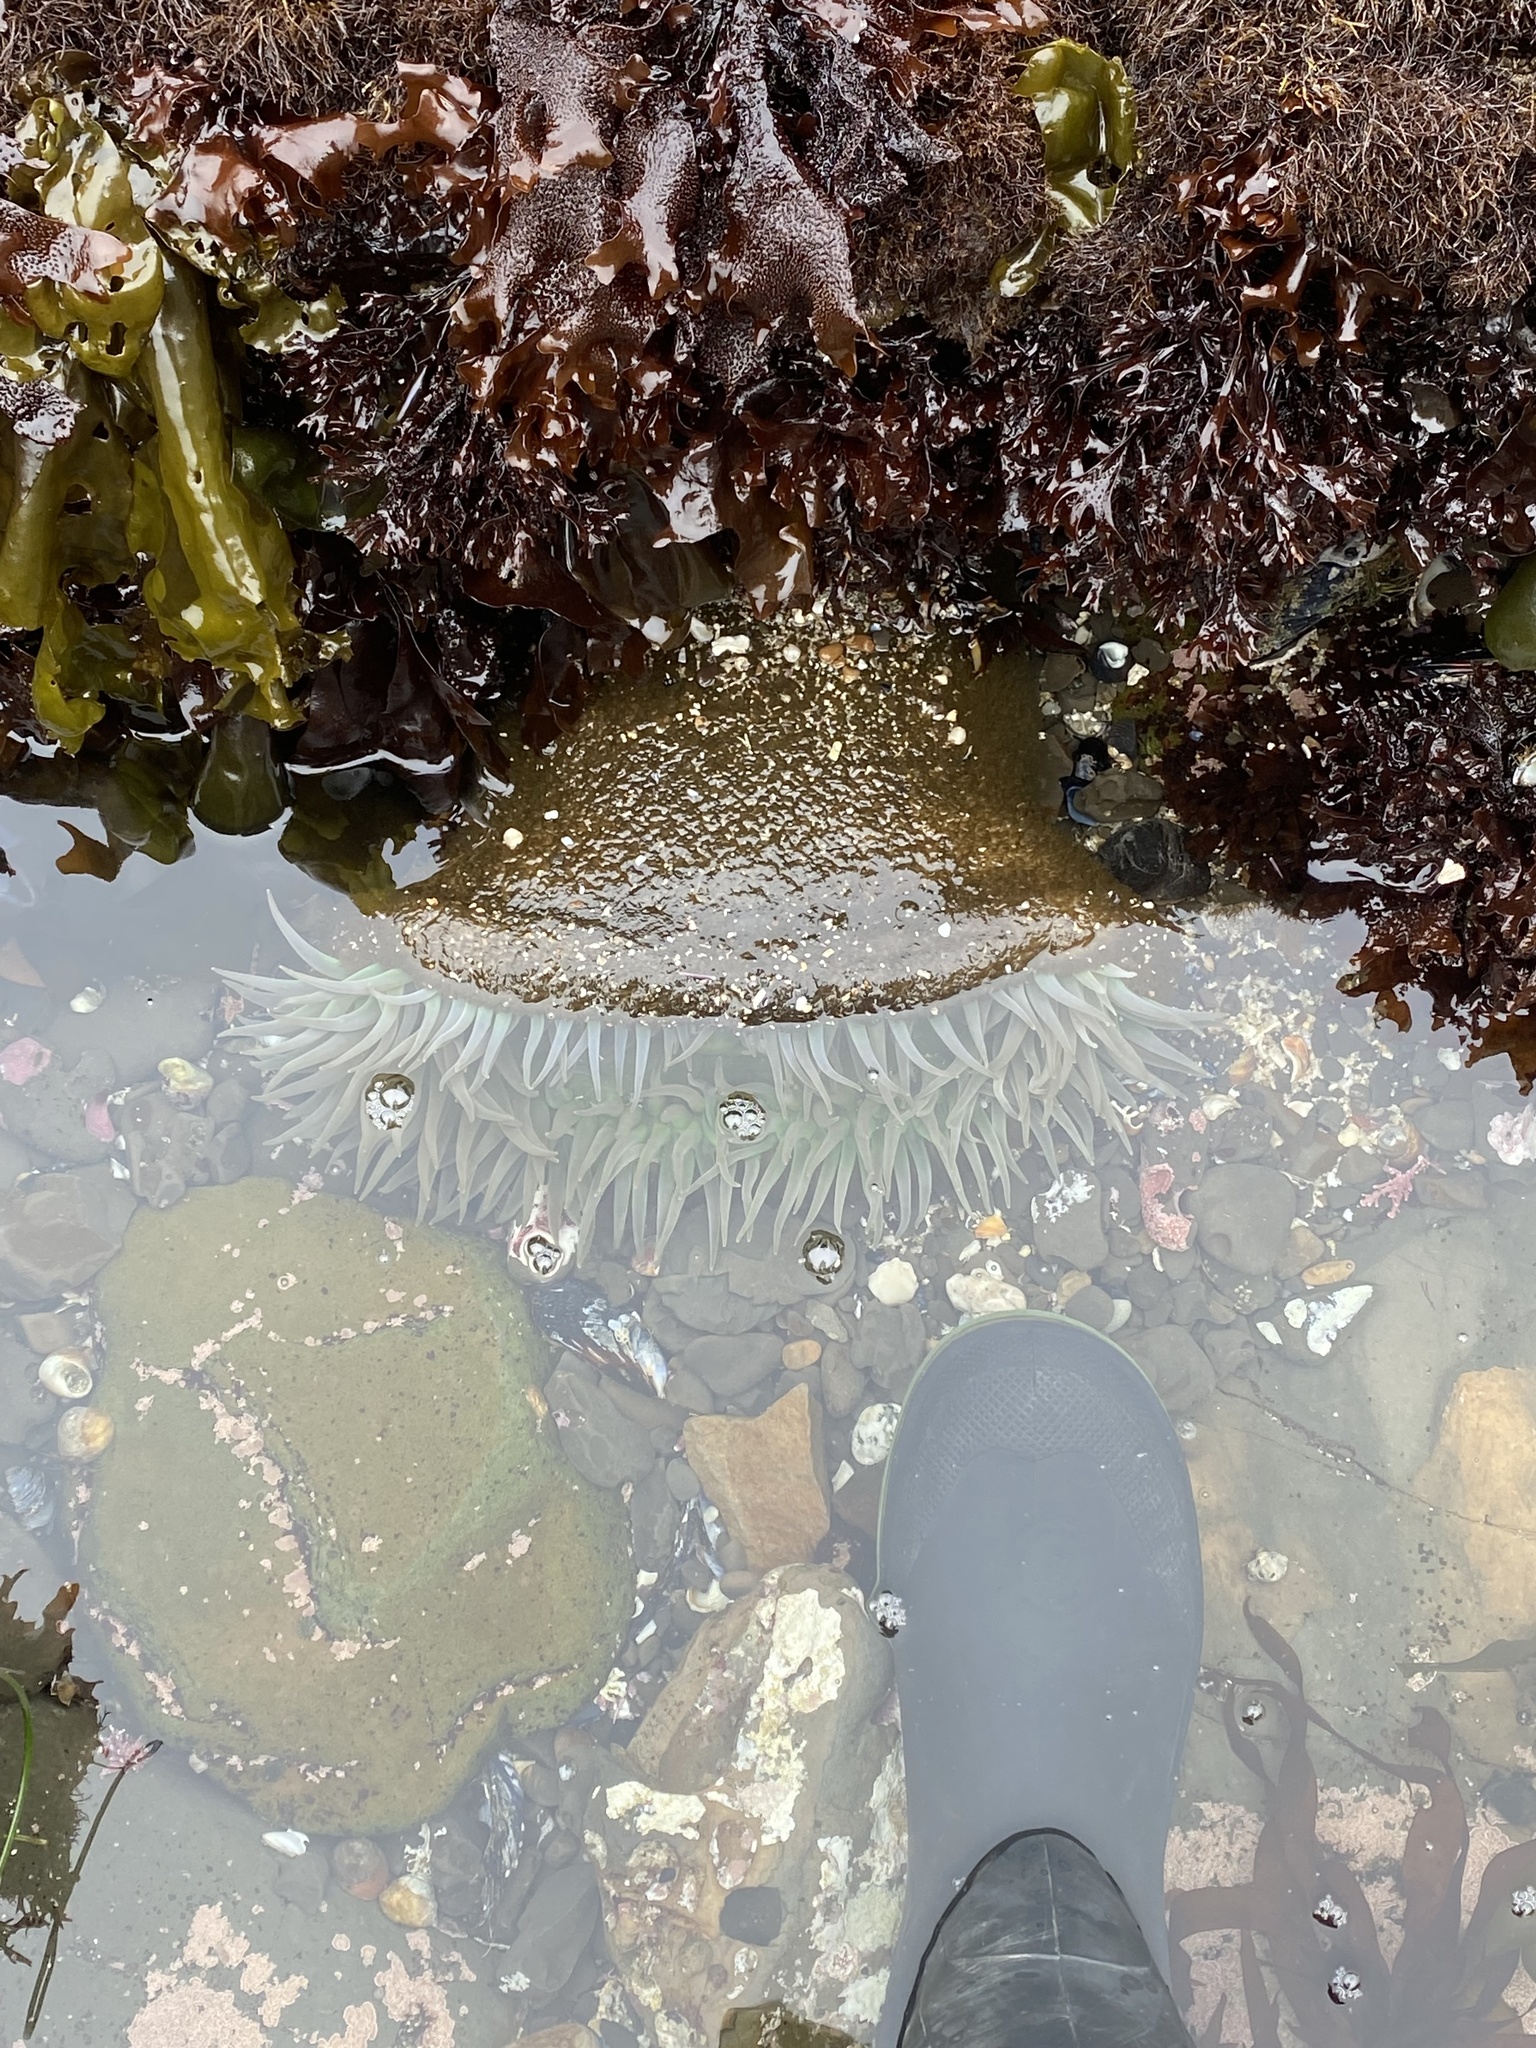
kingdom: Animalia
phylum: Cnidaria
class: Anthozoa
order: Actiniaria
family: Actiniidae
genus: Anthopleura
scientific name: Anthopleura xanthogrammica
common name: Giant green anemone
